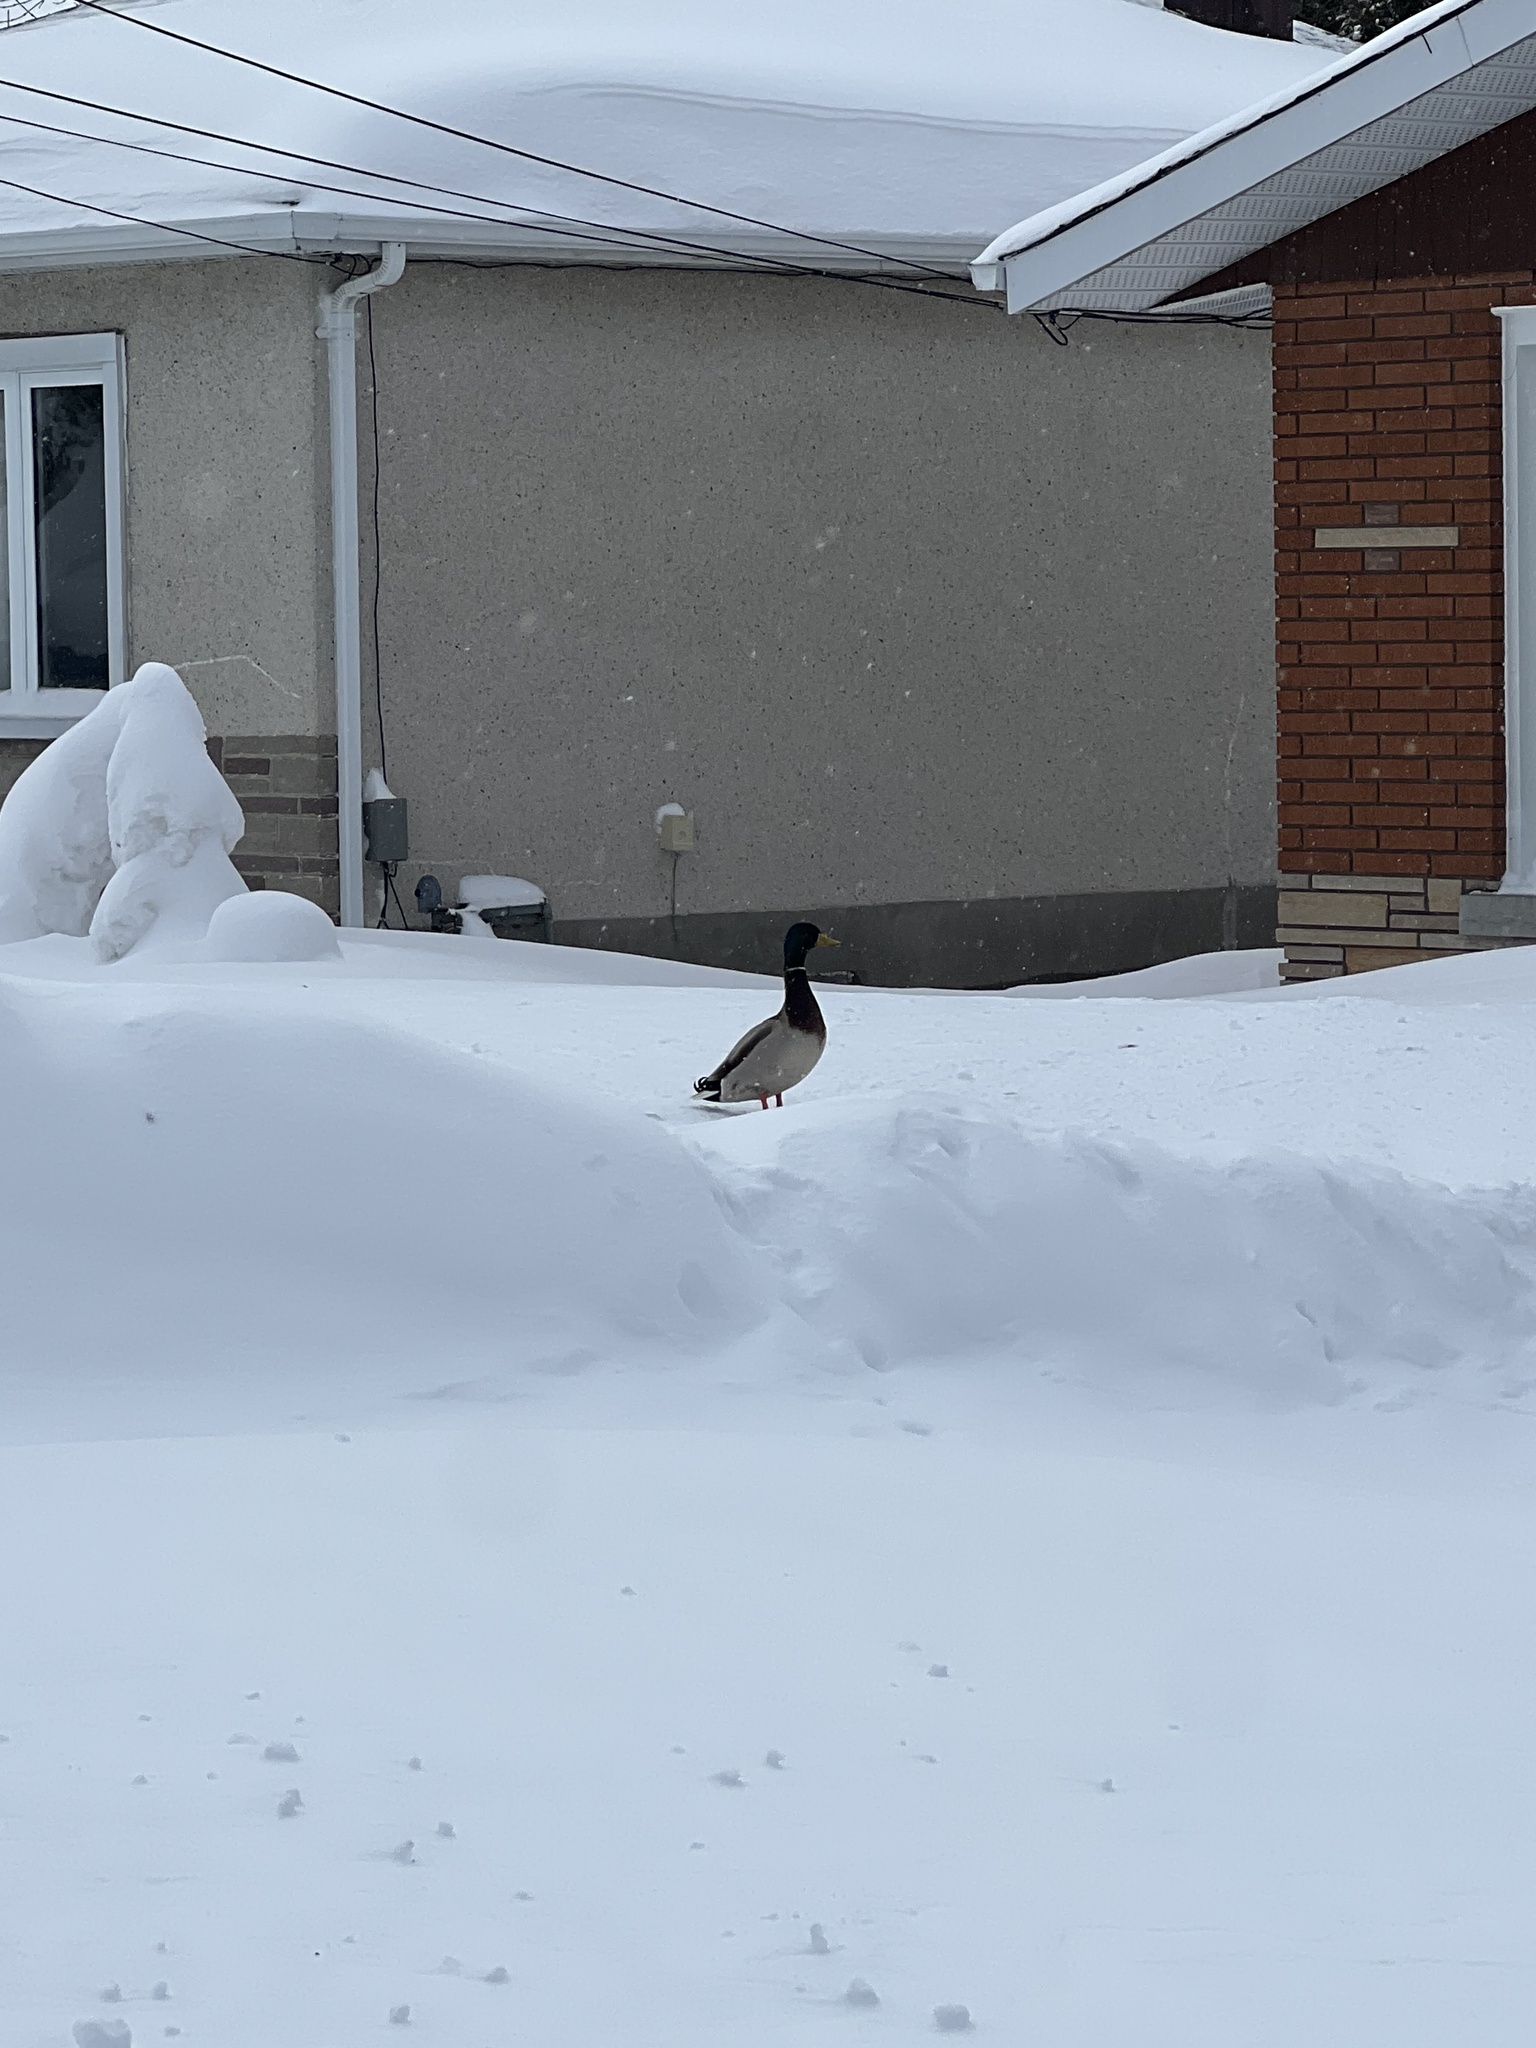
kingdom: Animalia
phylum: Chordata
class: Aves
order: Anseriformes
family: Anatidae
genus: Anas
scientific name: Anas platyrhynchos
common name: Mallard
